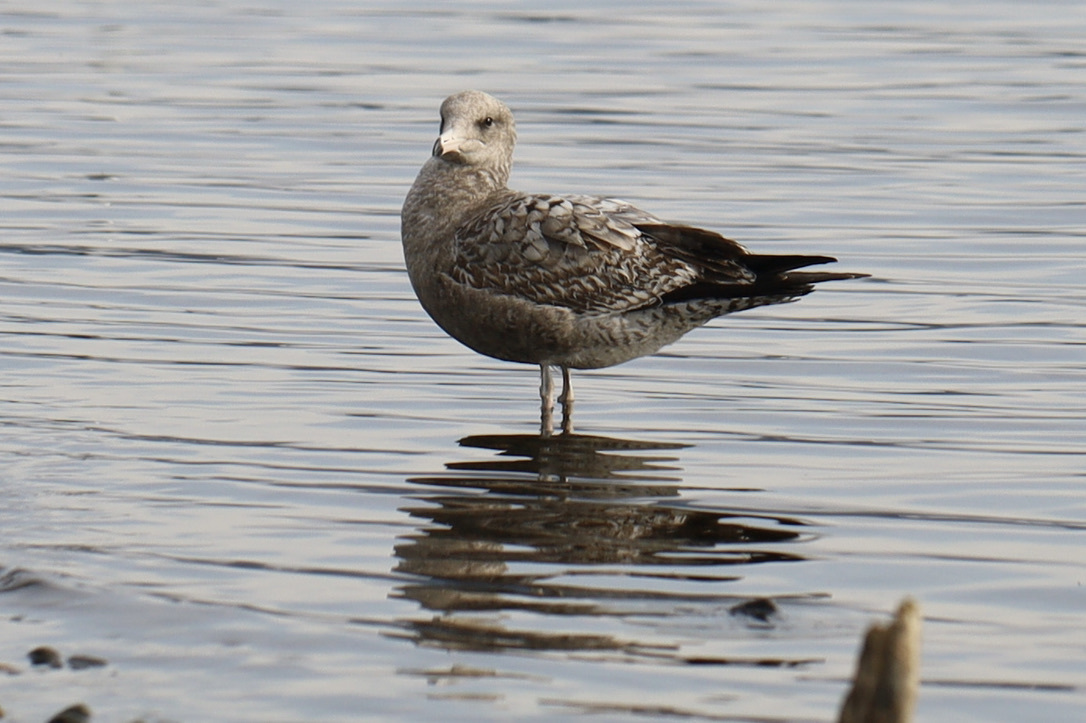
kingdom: Animalia
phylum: Chordata
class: Aves
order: Charadriiformes
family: Laridae
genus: Larus
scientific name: Larus
